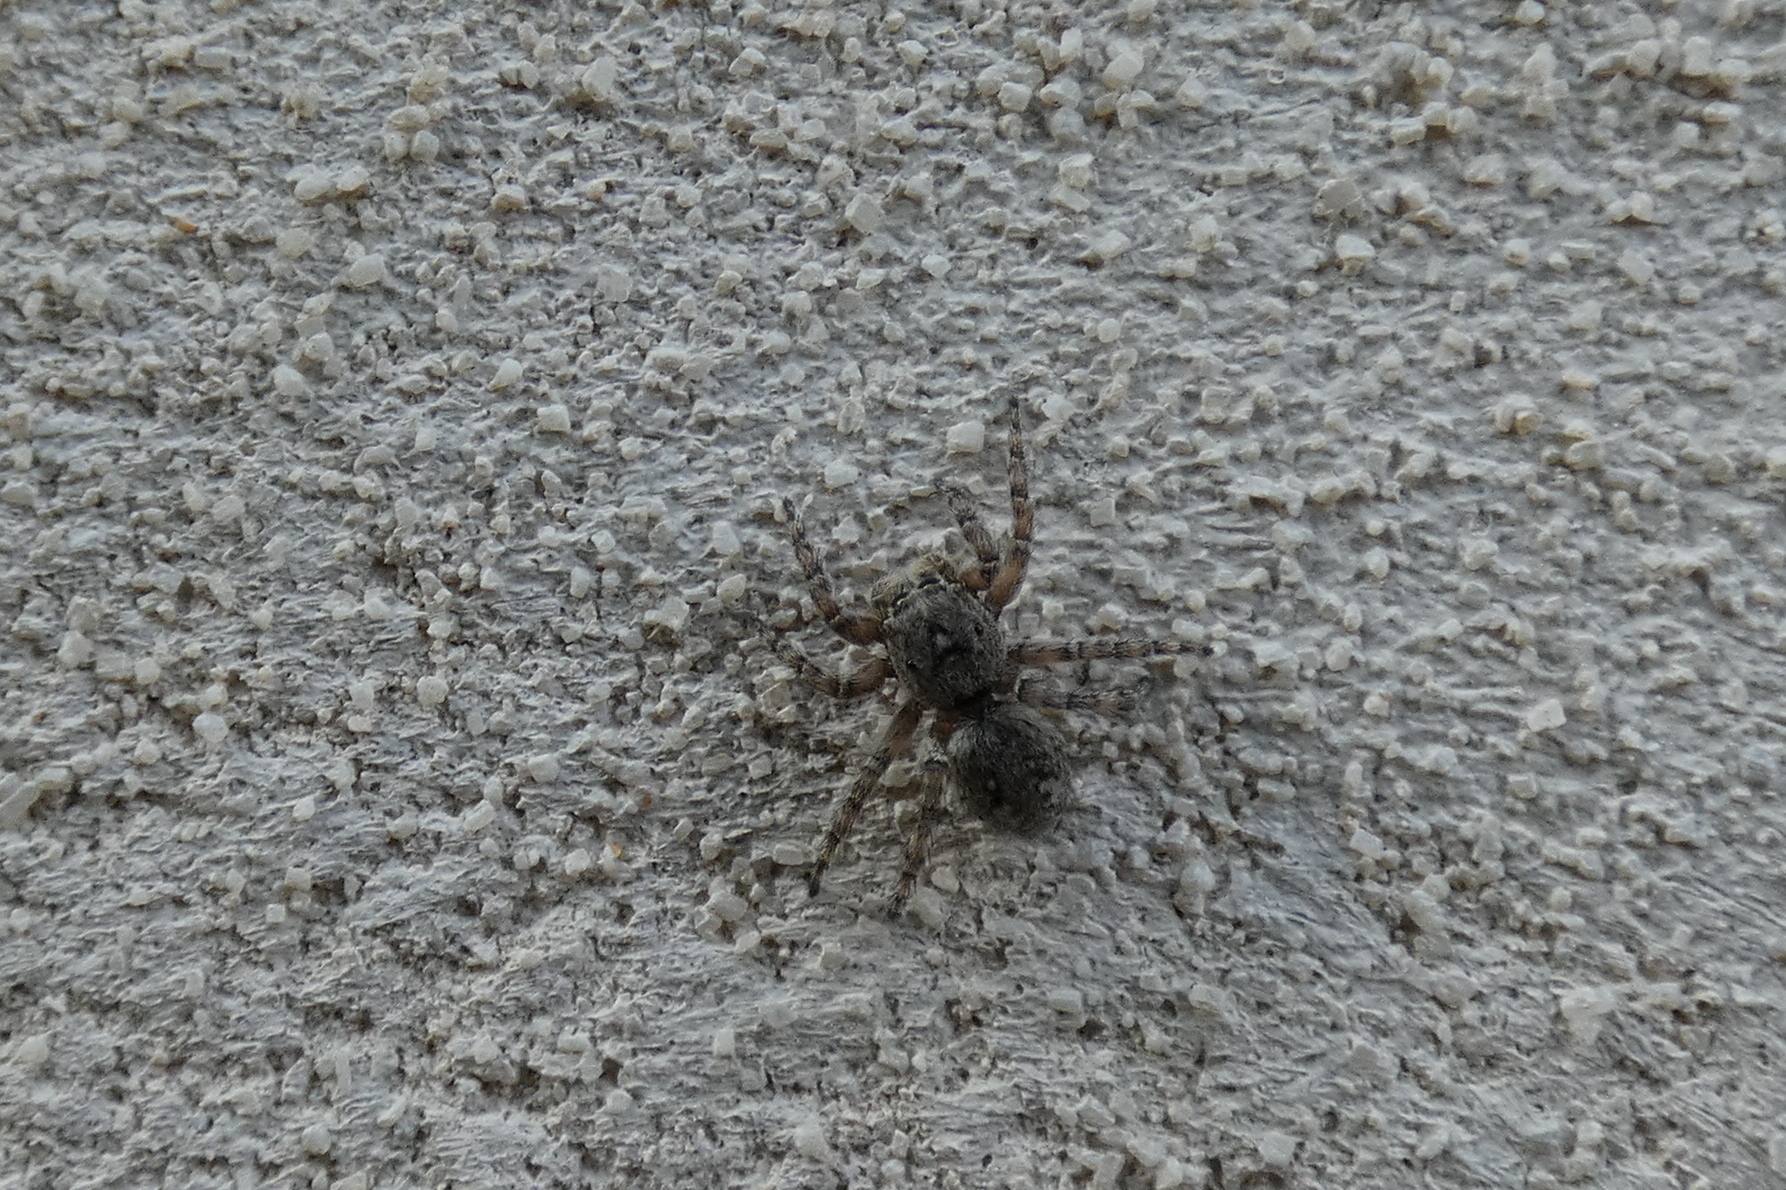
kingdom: Animalia
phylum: Arthropoda
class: Arachnida
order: Araneae
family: Salticidae
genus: Attulus
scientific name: Attulus pubescens
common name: Jumping spider
